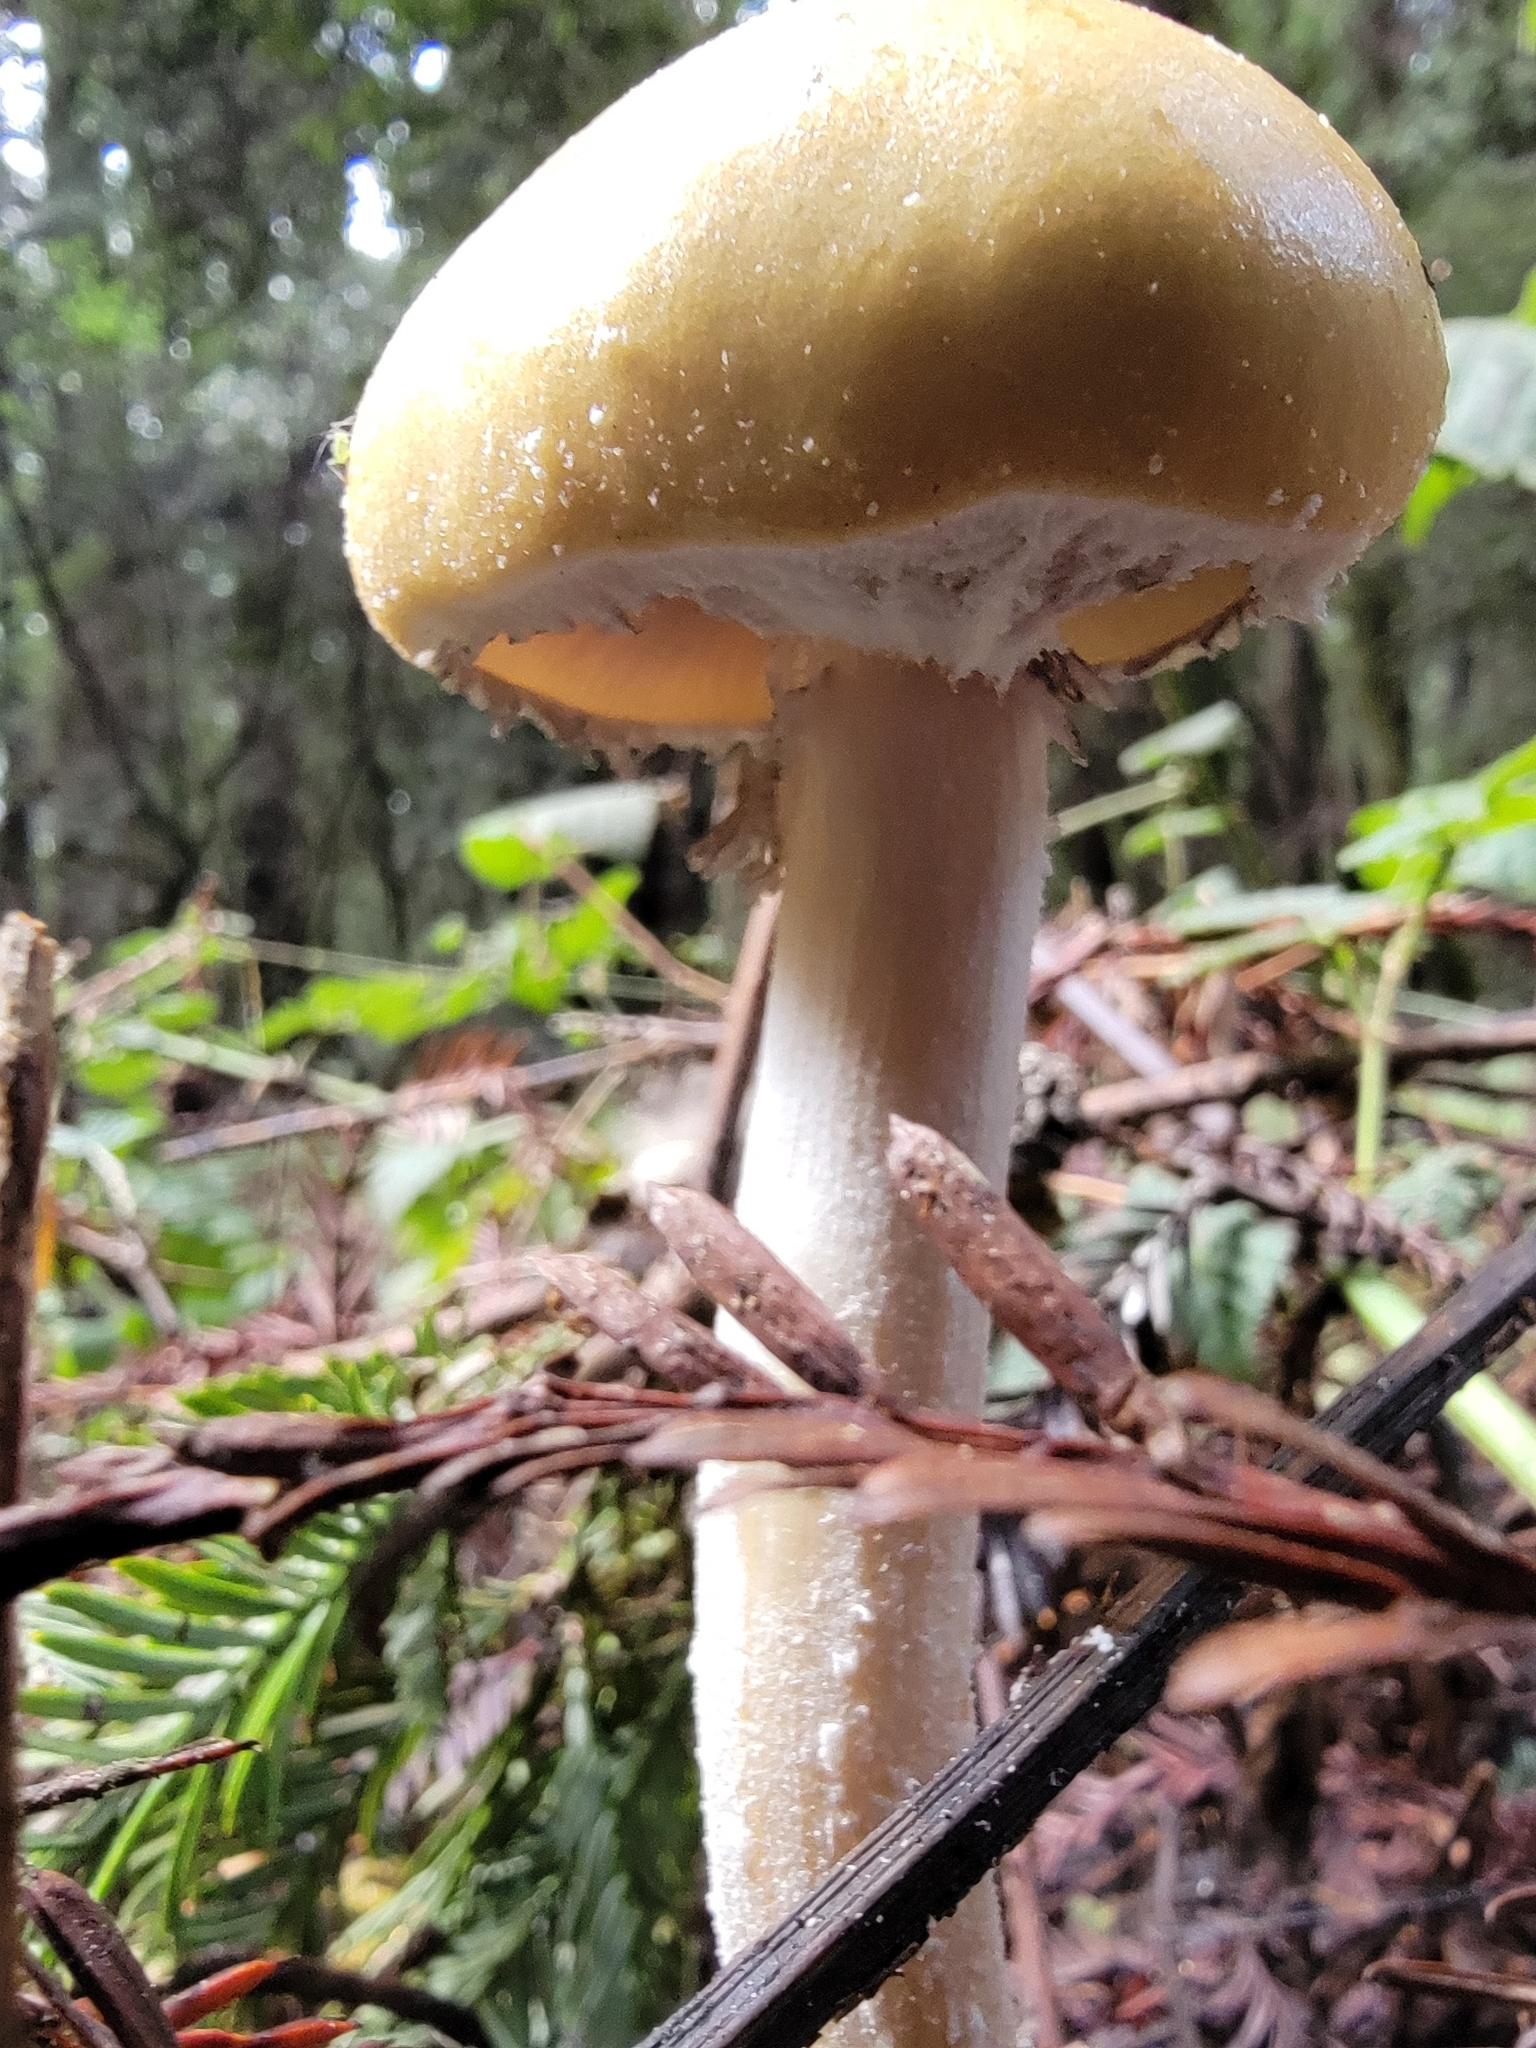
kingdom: Fungi
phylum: Basidiomycota
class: Agaricomycetes
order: Agaricales
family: Strophariaceae
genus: Stropharia
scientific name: Stropharia ambigua
